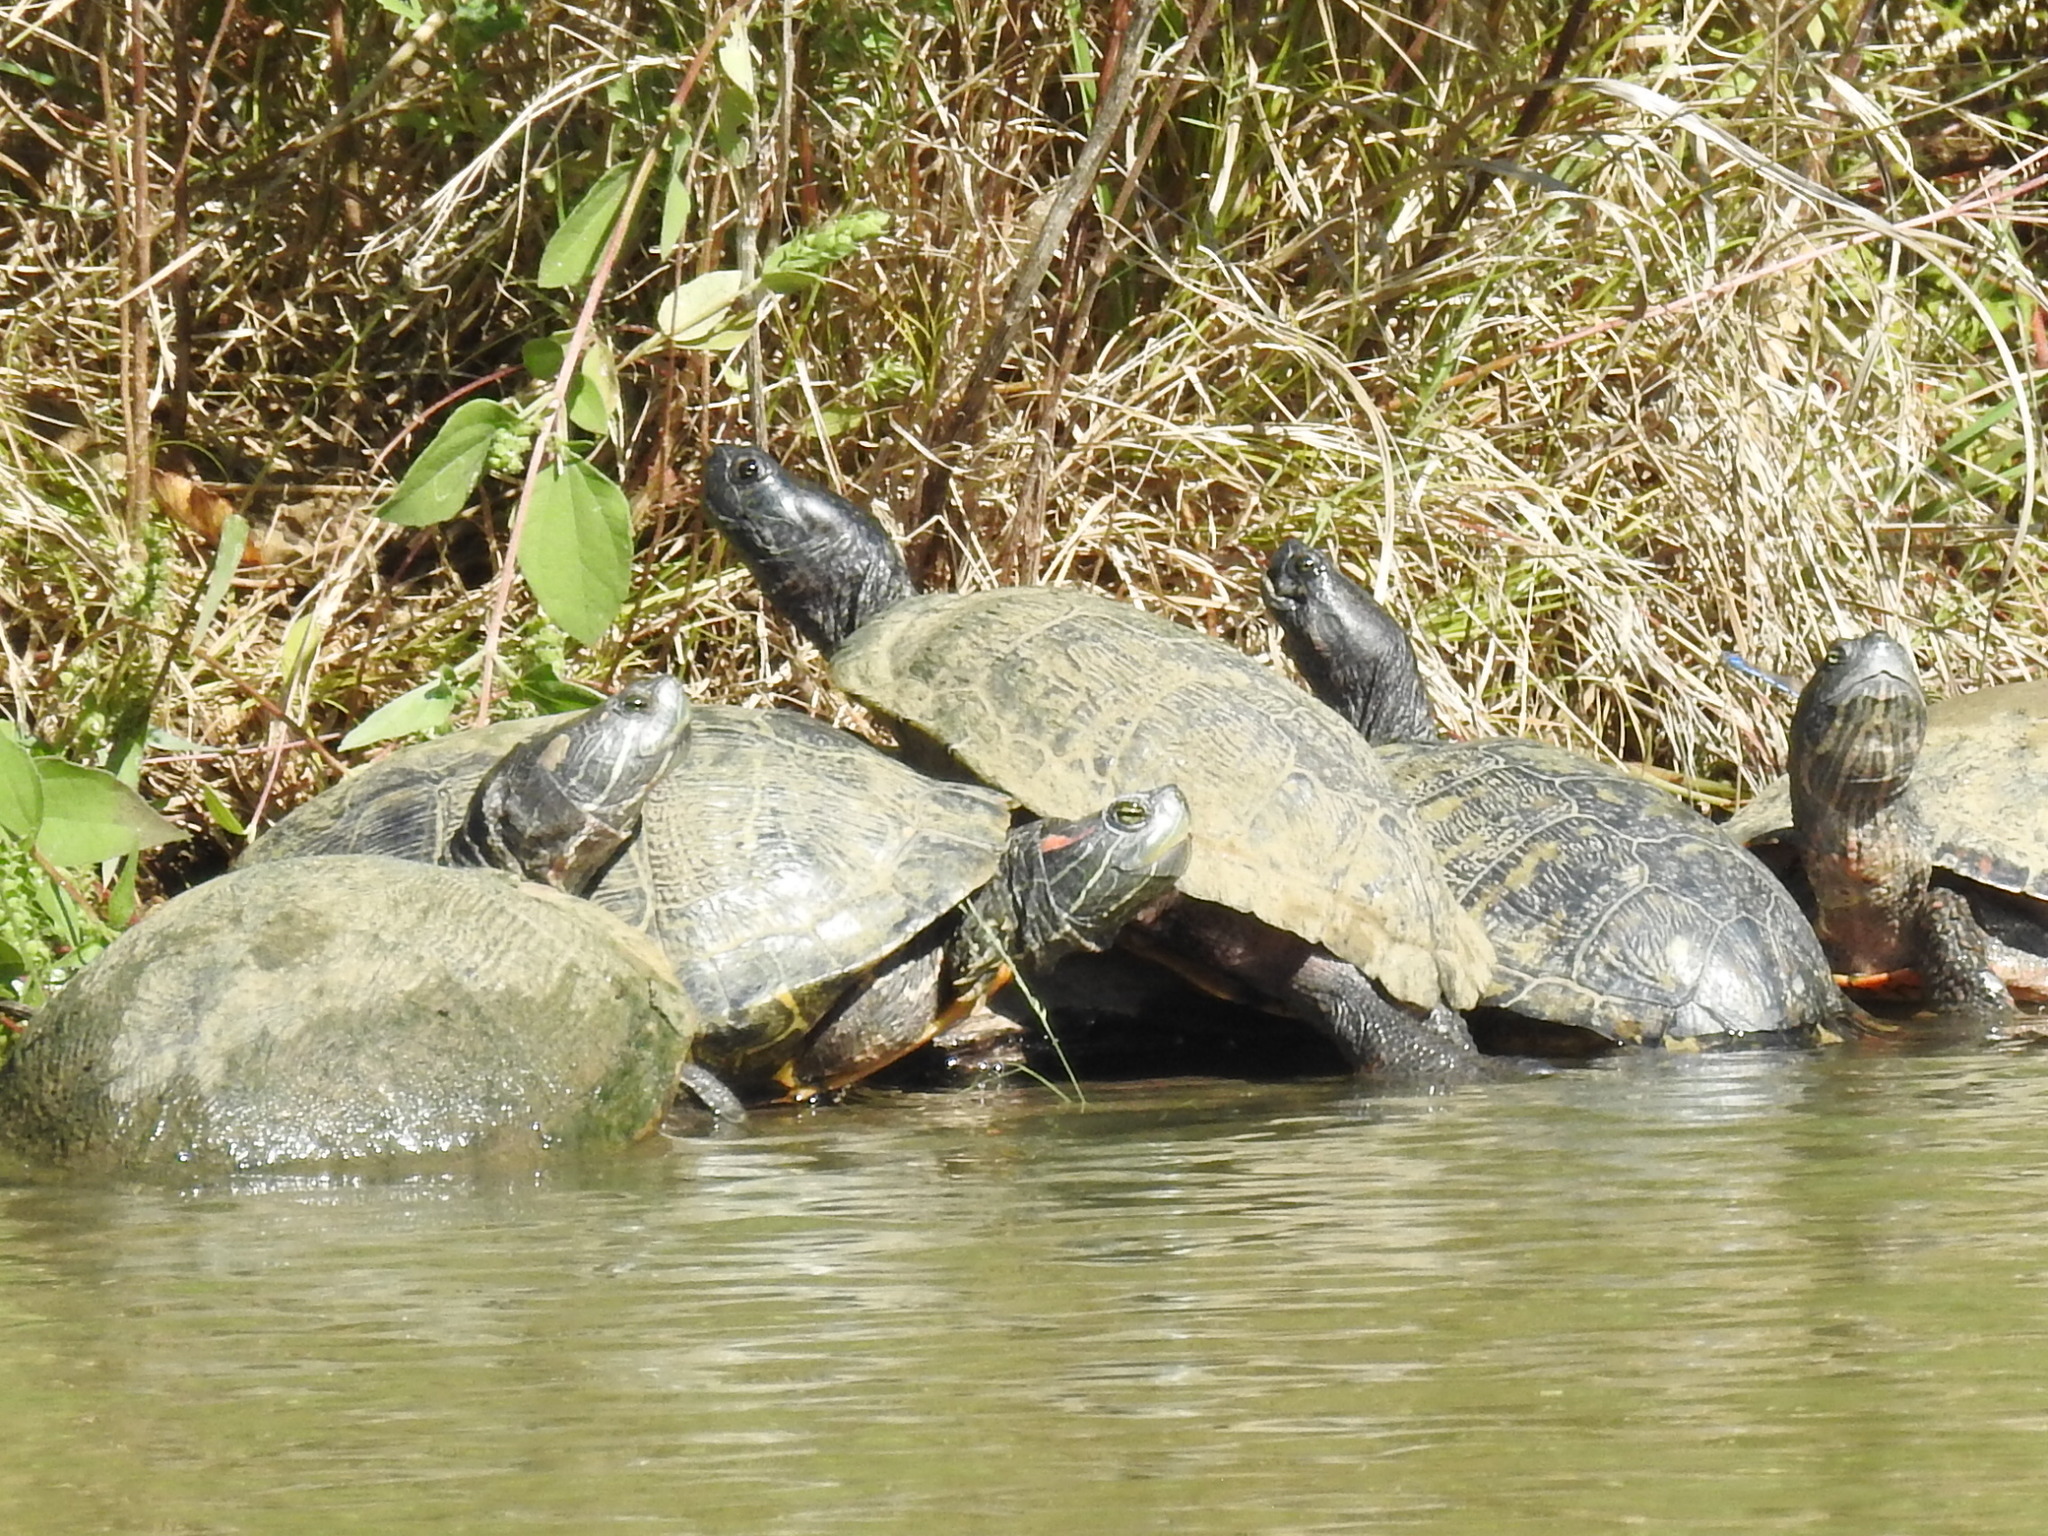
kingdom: Animalia
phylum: Chordata
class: Testudines
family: Emydidae
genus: Trachemys
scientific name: Trachemys scripta
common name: Slider
